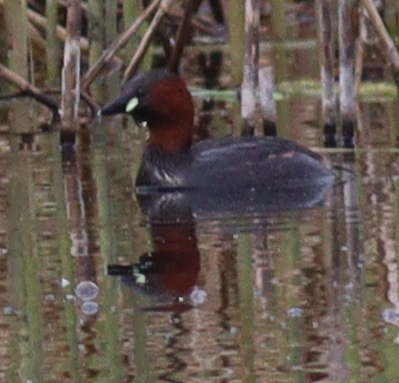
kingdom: Animalia
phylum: Chordata
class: Aves
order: Podicipediformes
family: Podicipedidae
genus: Tachybaptus
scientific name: Tachybaptus ruficollis
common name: Little grebe
